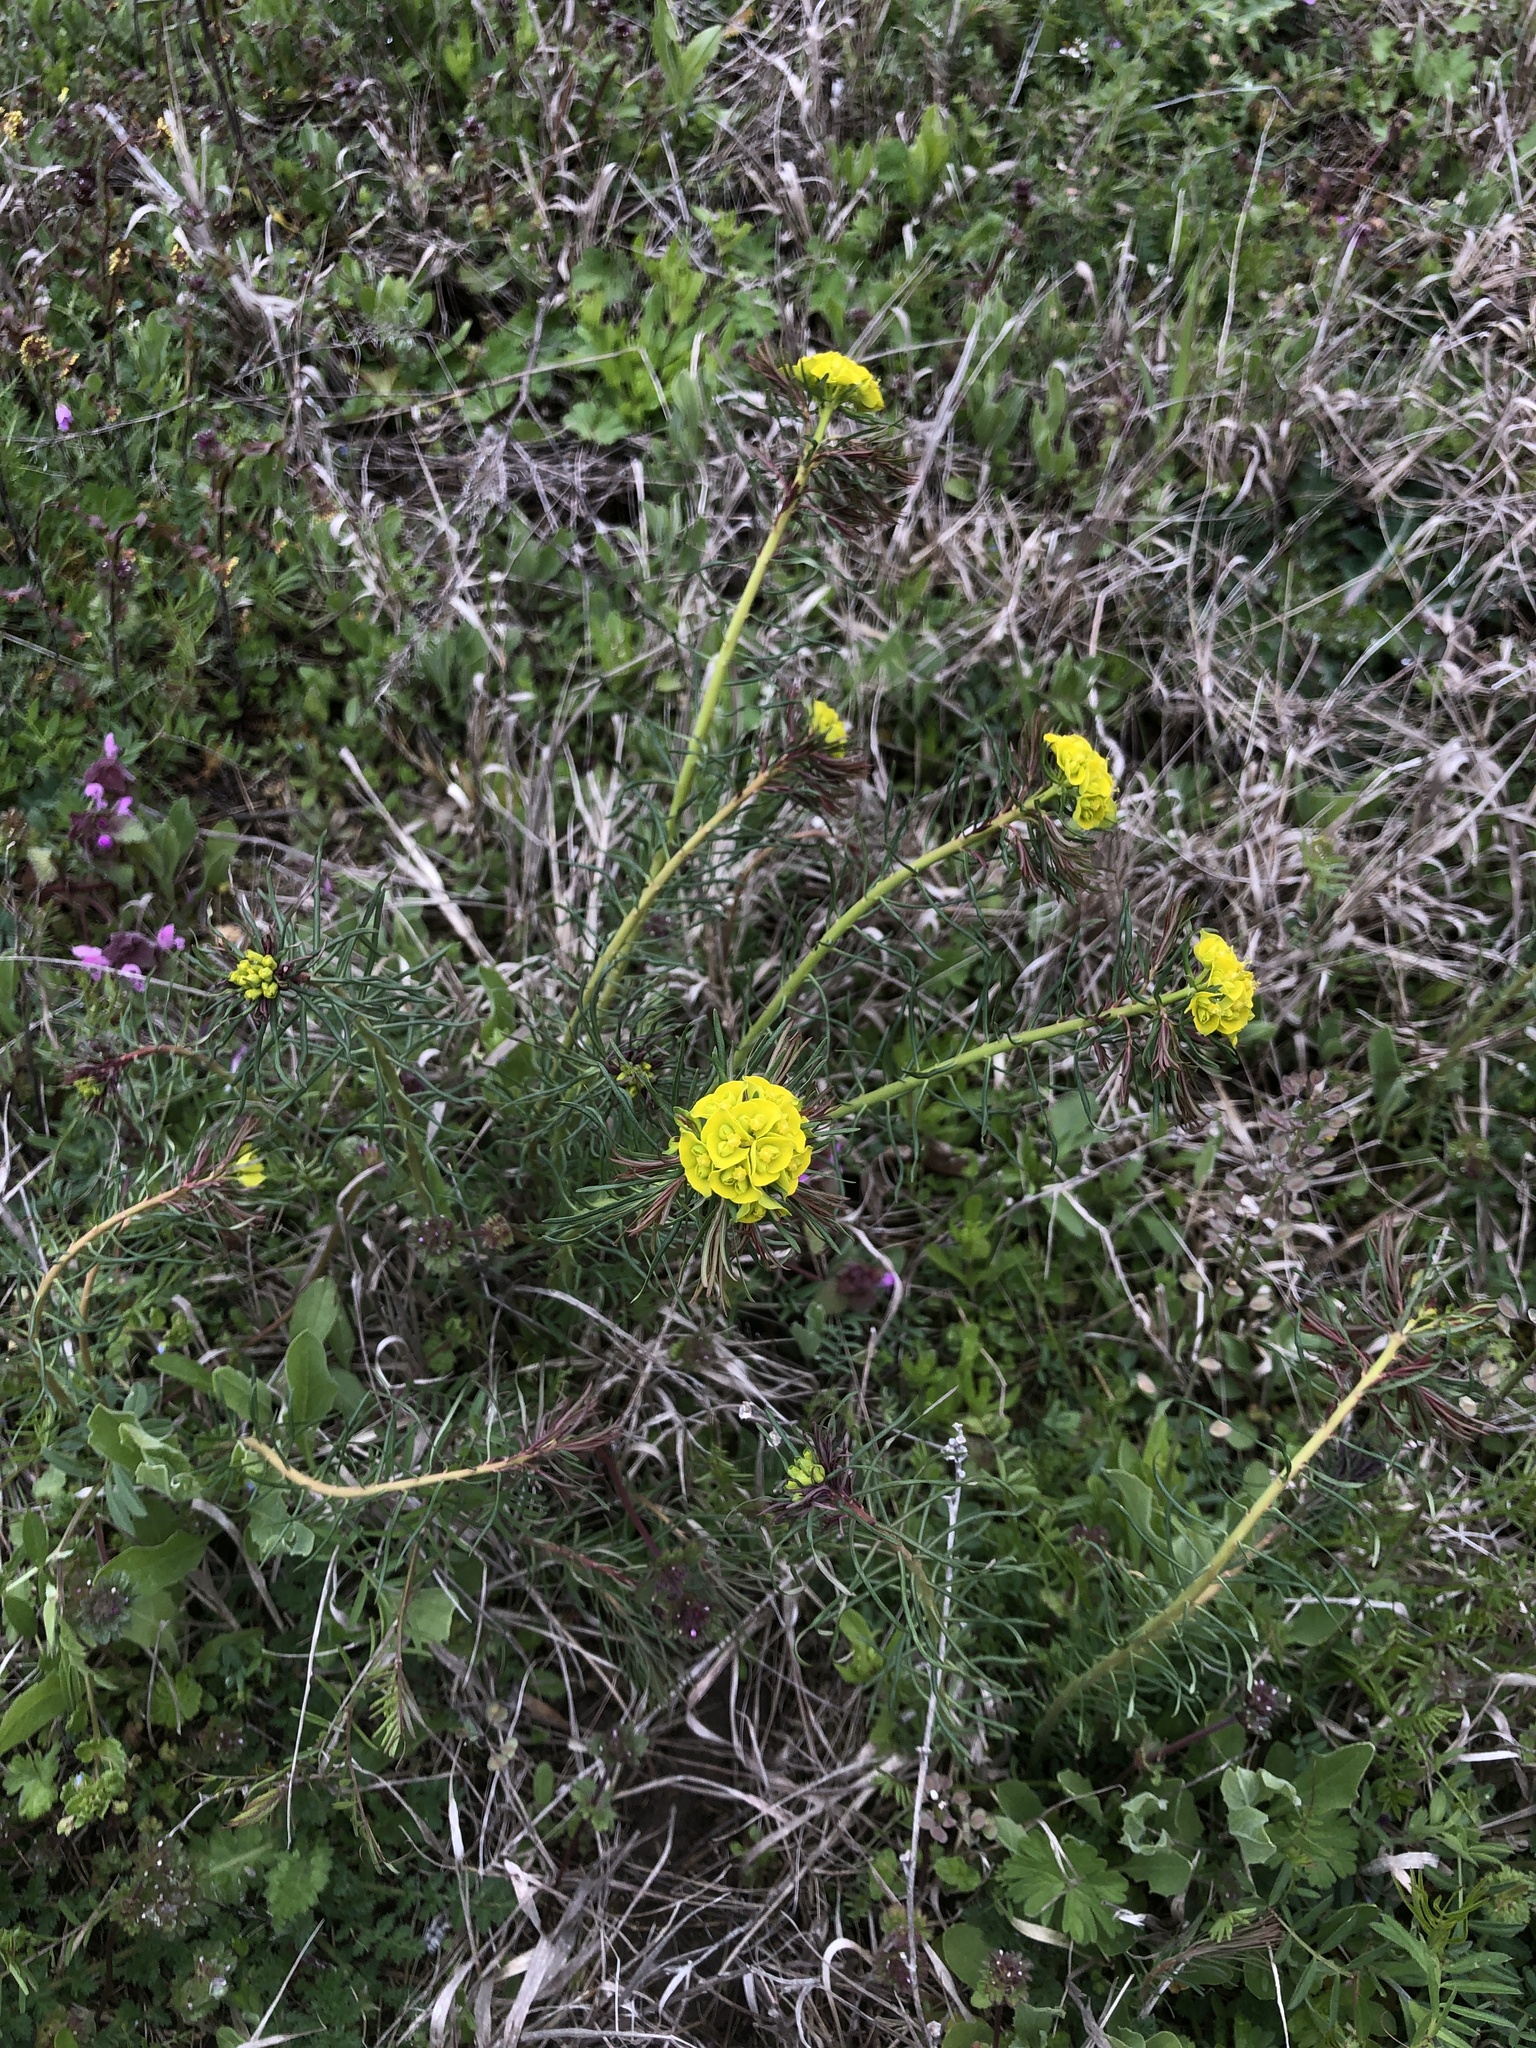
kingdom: Plantae
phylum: Tracheophyta
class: Magnoliopsida
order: Malpighiales
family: Euphorbiaceae
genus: Euphorbia
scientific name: Euphorbia cyparissias
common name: Cypress spurge
